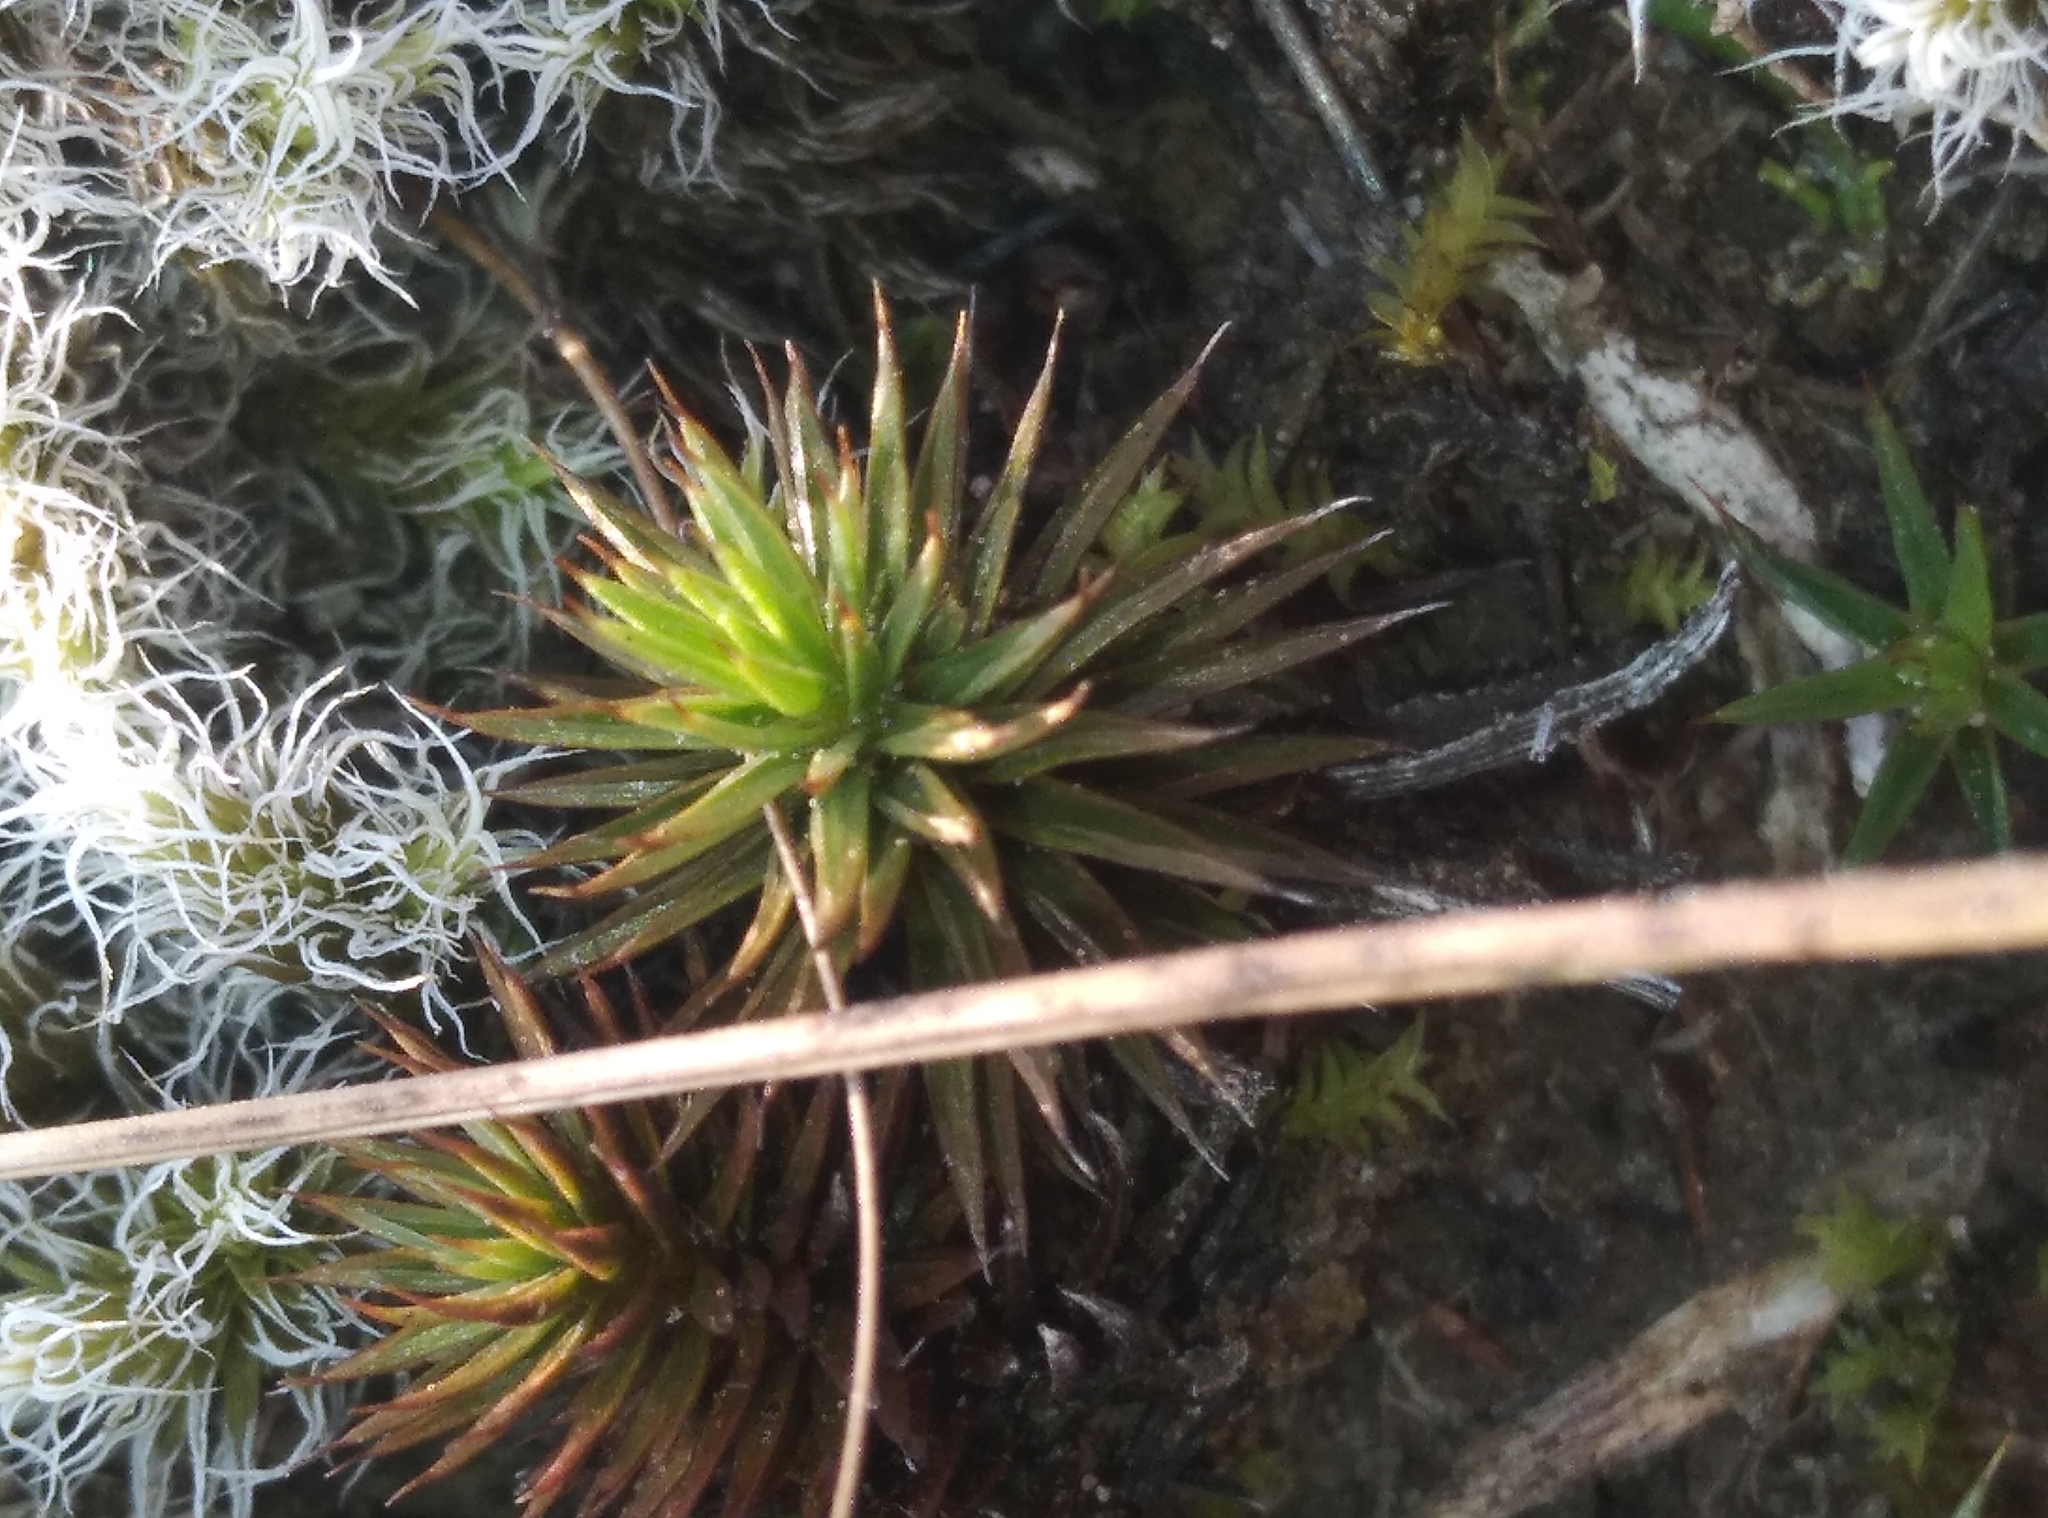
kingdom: Plantae
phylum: Bryophyta
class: Polytrichopsida
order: Polytrichales
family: Polytrichaceae
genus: Polytrichum
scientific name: Polytrichum juniperinum
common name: Juniper haircap moss
